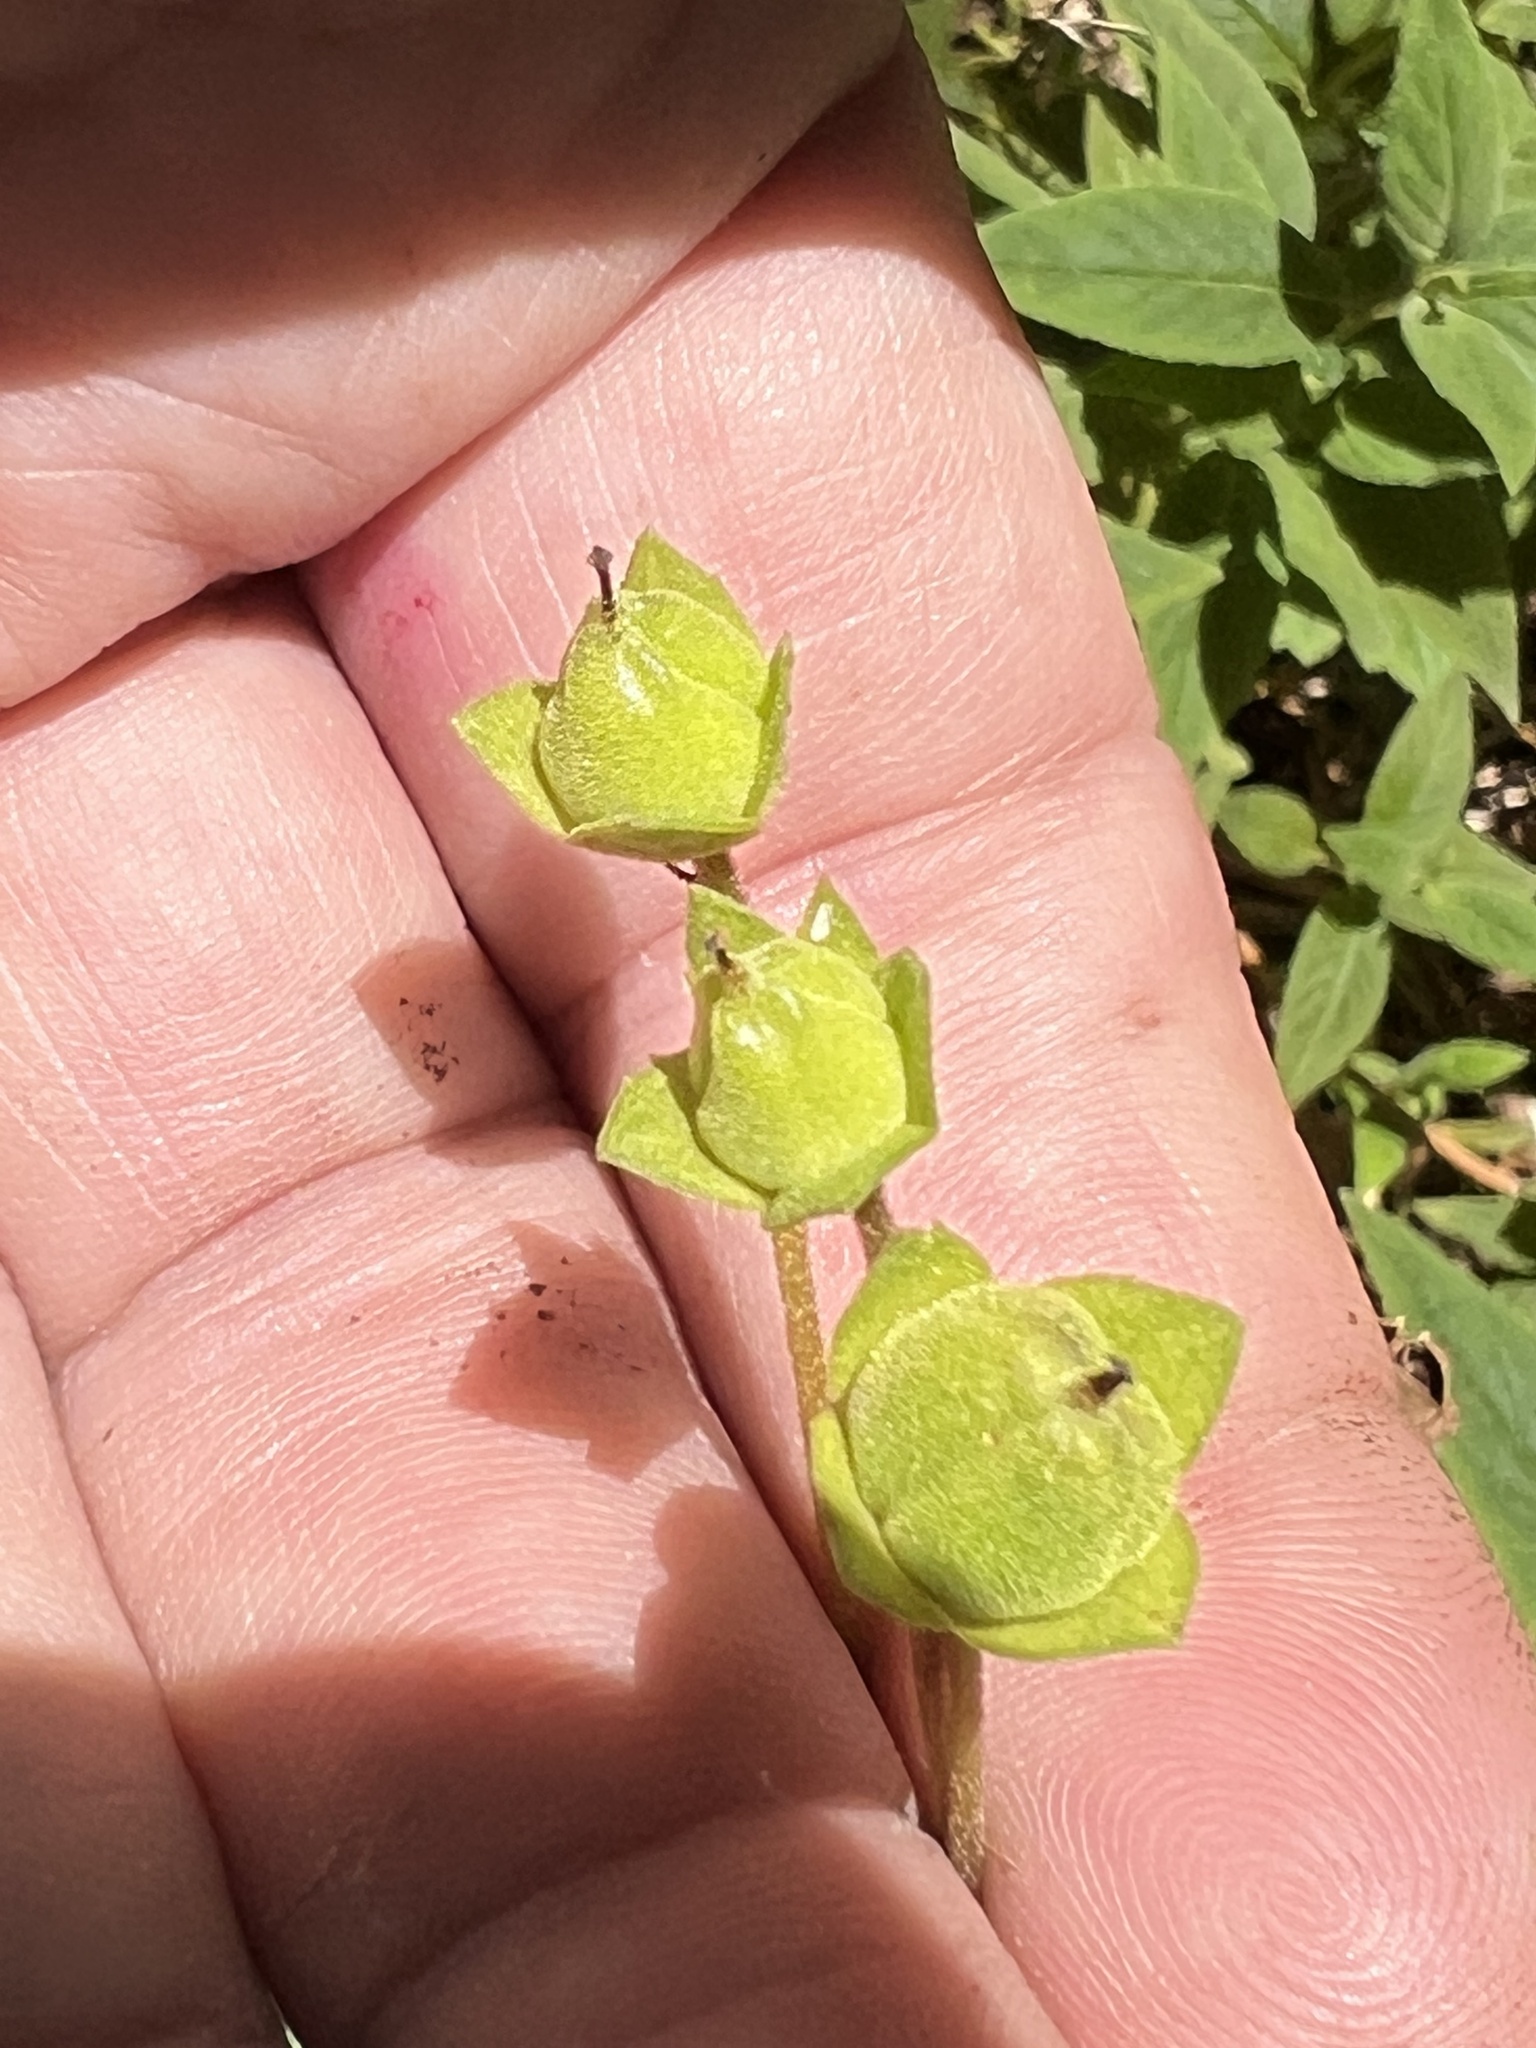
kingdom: Plantae
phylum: Tracheophyta
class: Magnoliopsida
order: Lamiales
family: Calceolariaceae
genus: Calceolaria
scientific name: Calceolaria irazuensis
